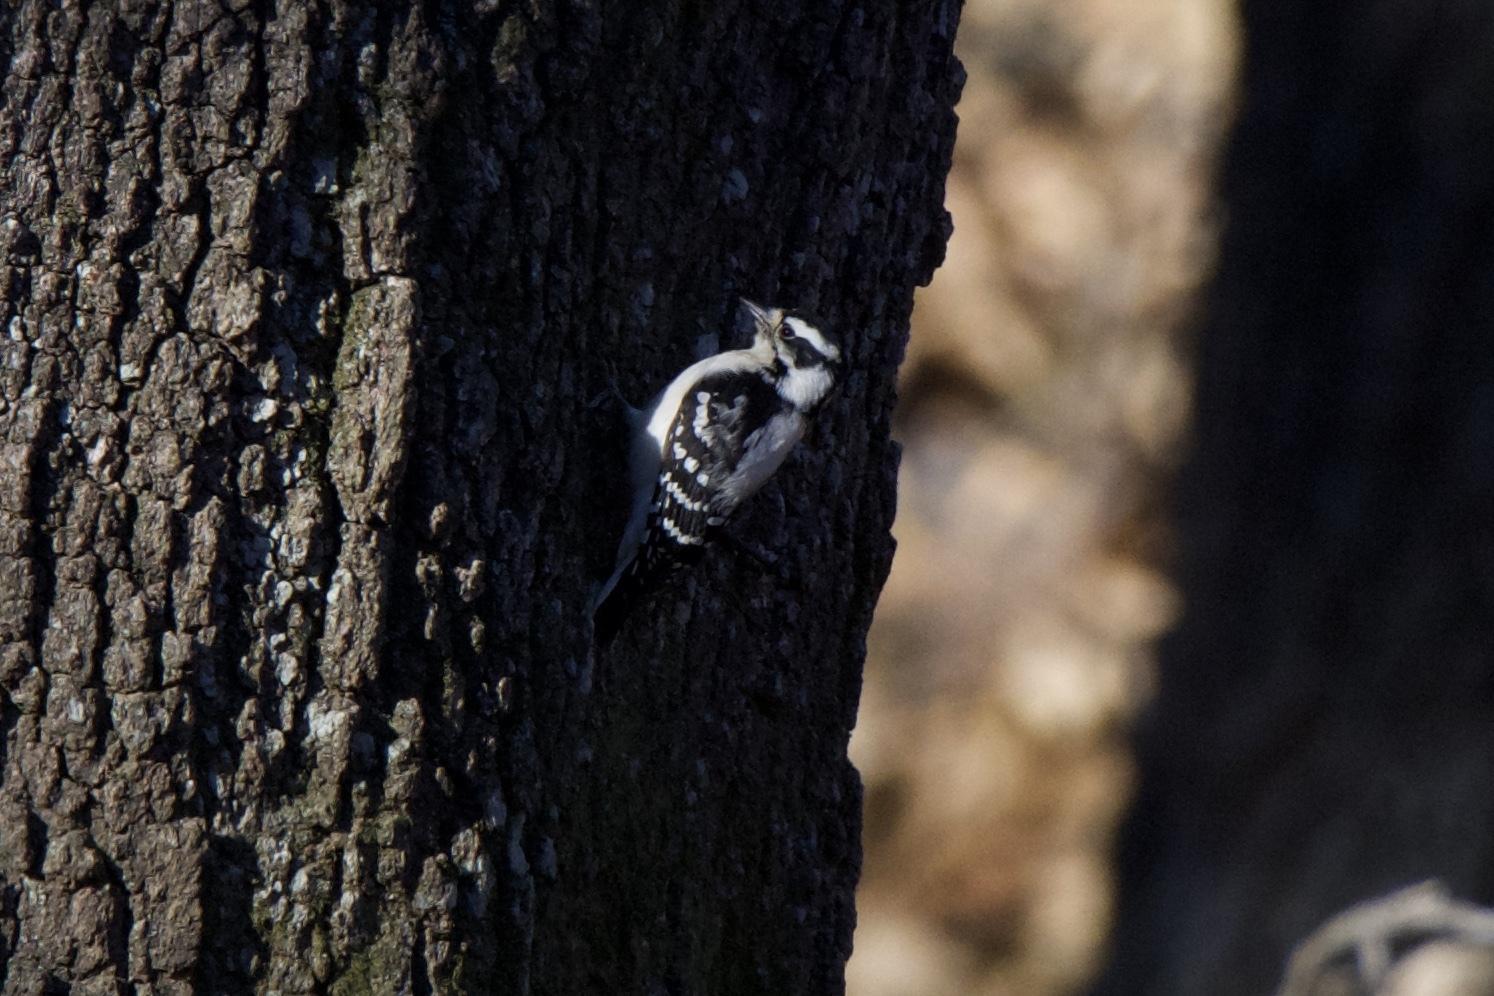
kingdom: Animalia
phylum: Chordata
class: Aves
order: Piciformes
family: Picidae
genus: Dryobates
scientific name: Dryobates pubescens
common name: Downy woodpecker
